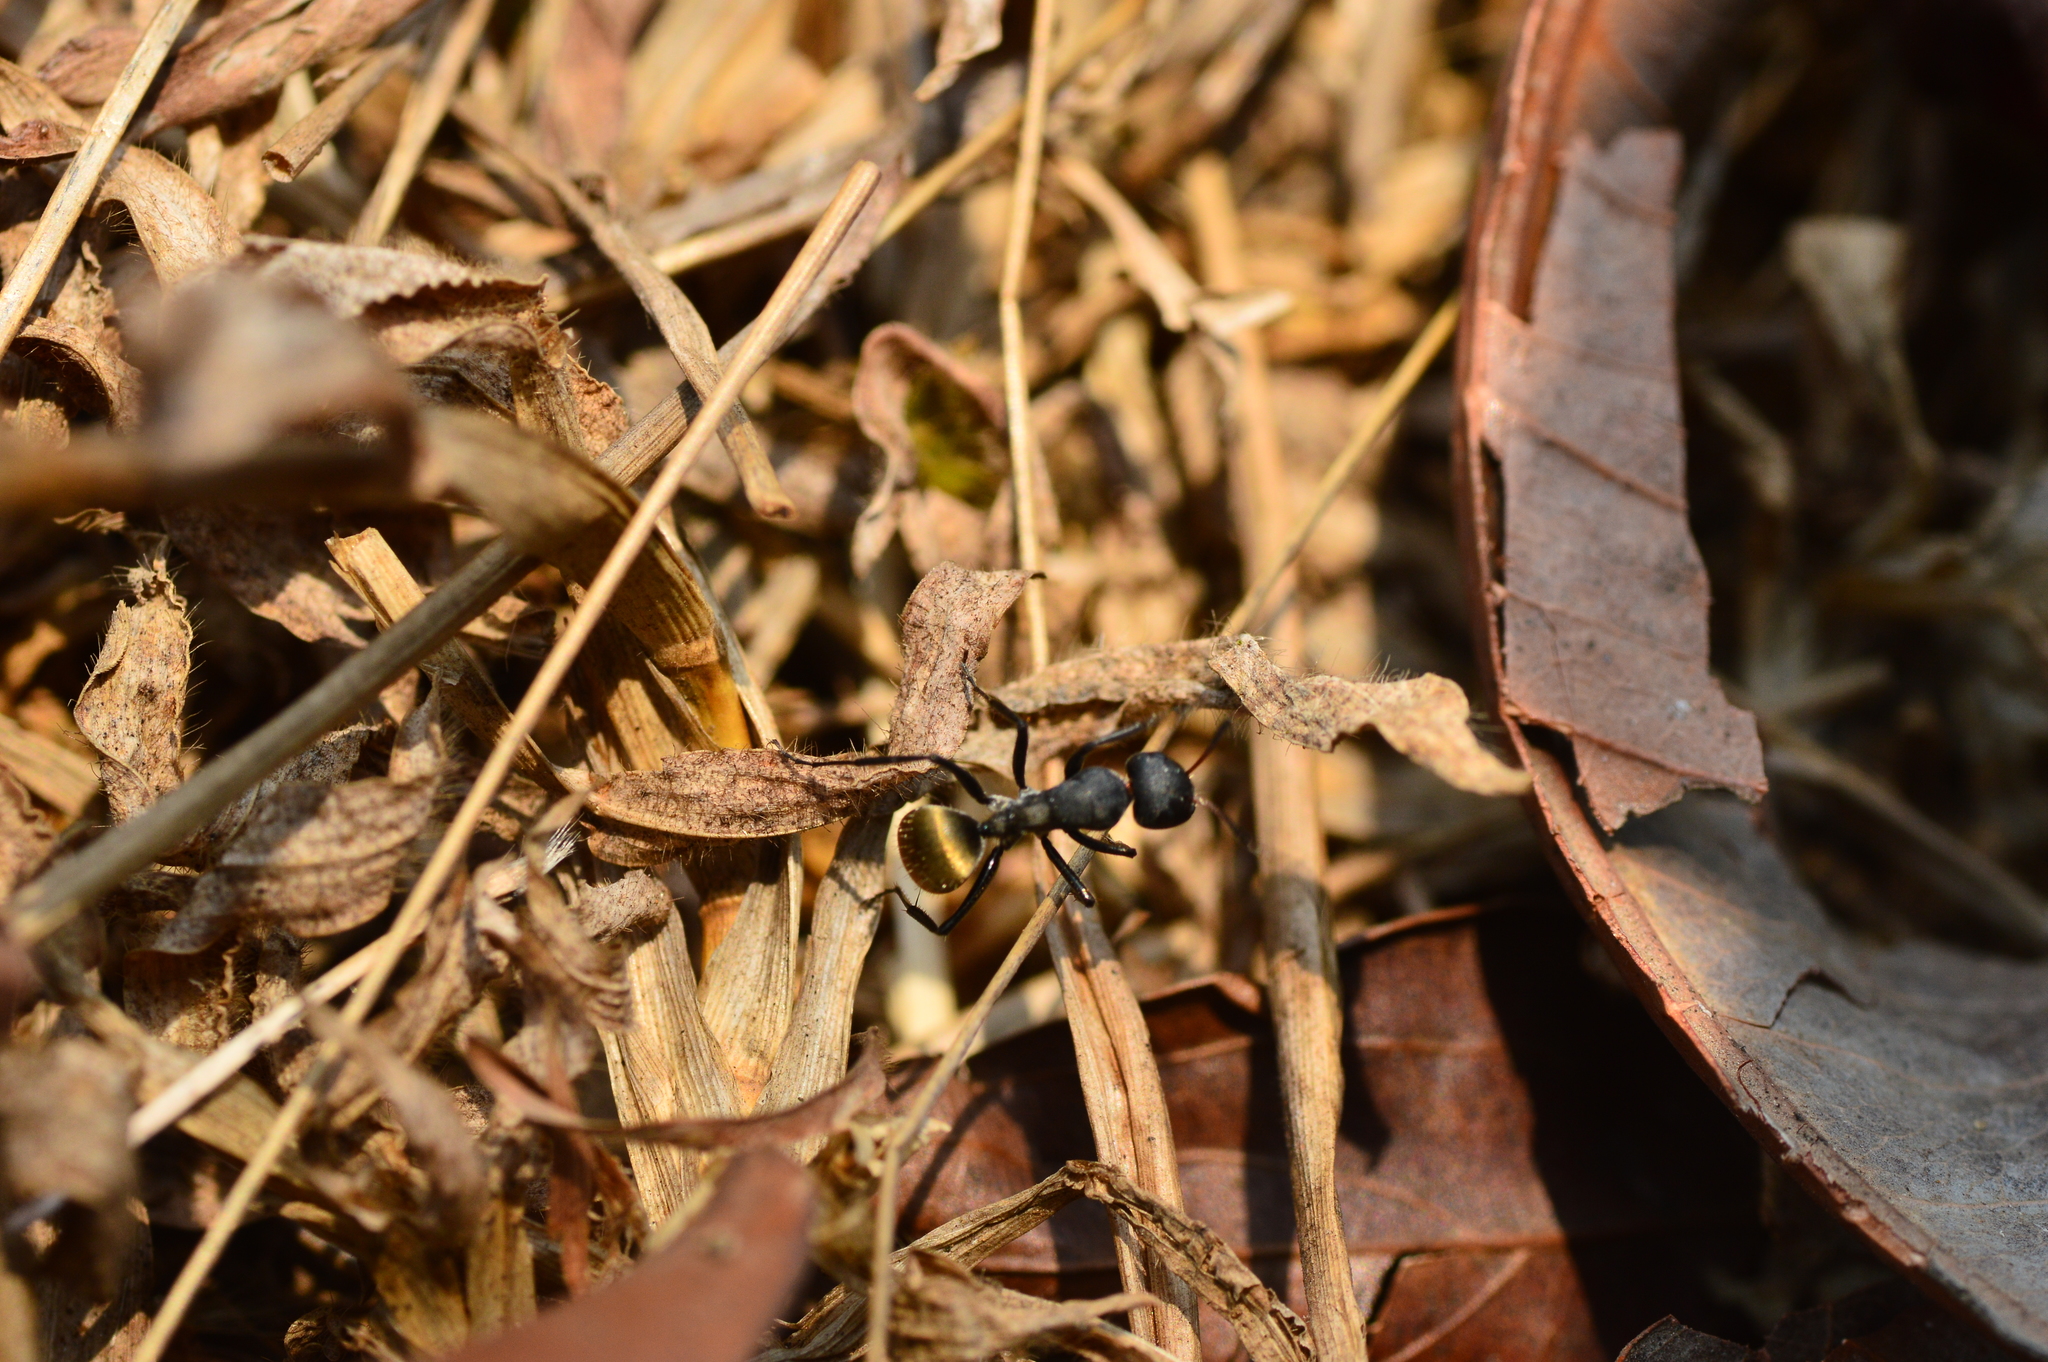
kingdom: Animalia
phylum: Arthropoda
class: Insecta
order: Hymenoptera
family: Formicidae
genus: Camponotus
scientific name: Camponotus sericeus
